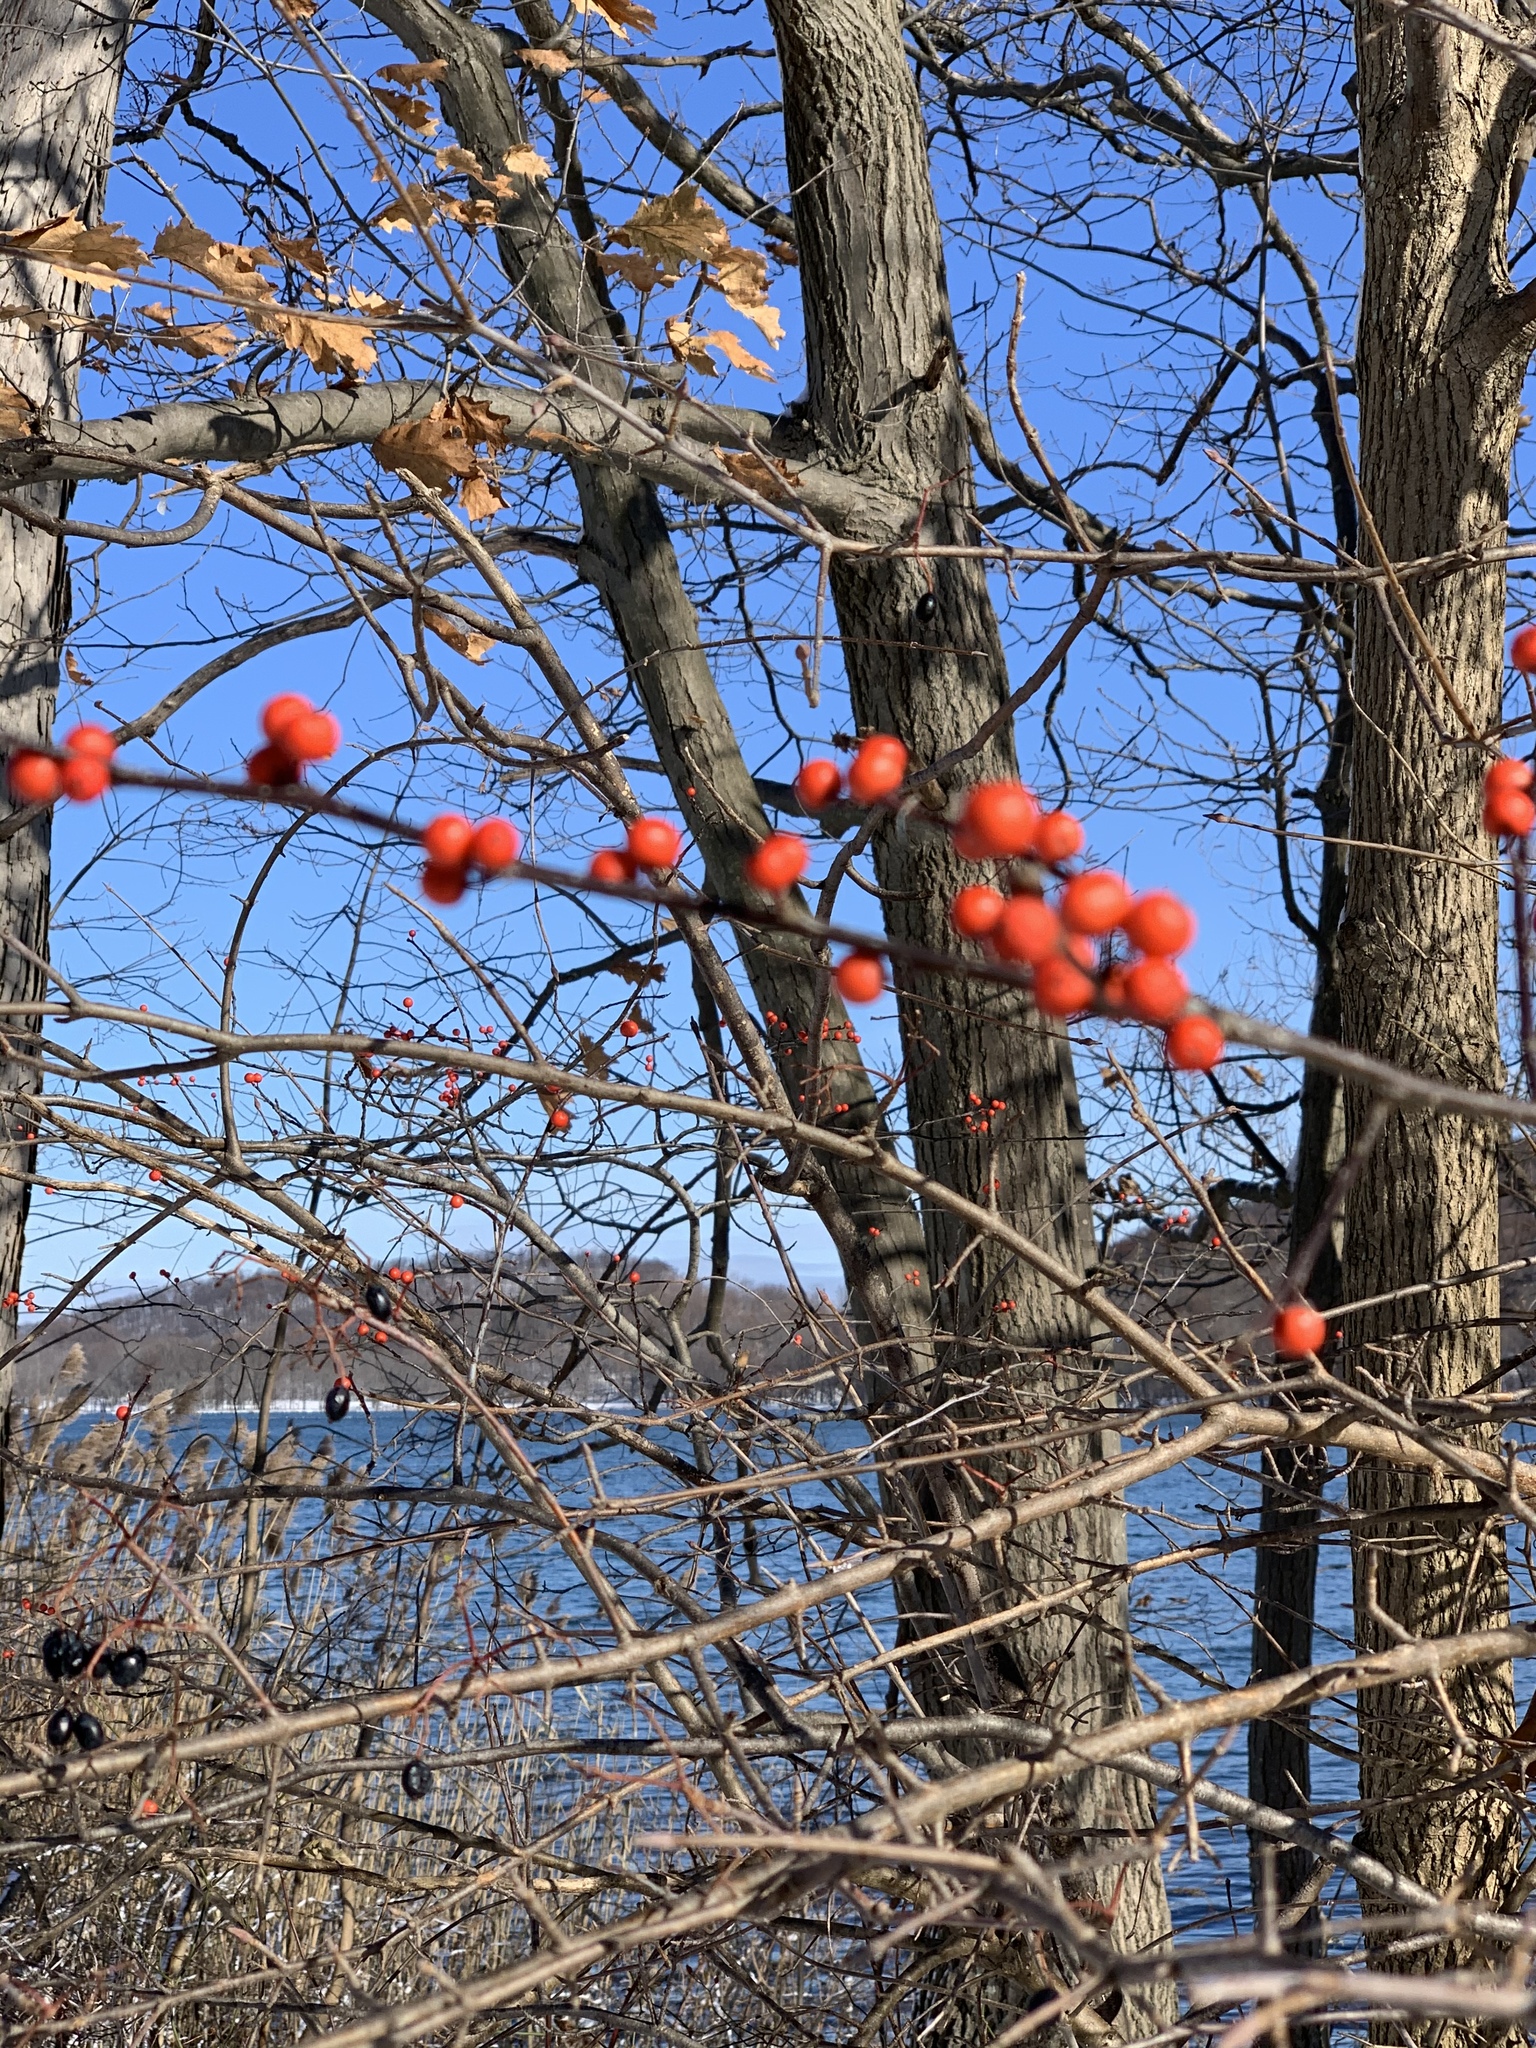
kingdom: Plantae
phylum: Tracheophyta
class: Magnoliopsida
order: Aquifoliales
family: Aquifoliaceae
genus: Ilex
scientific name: Ilex verticillata
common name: Virginia winterberry
